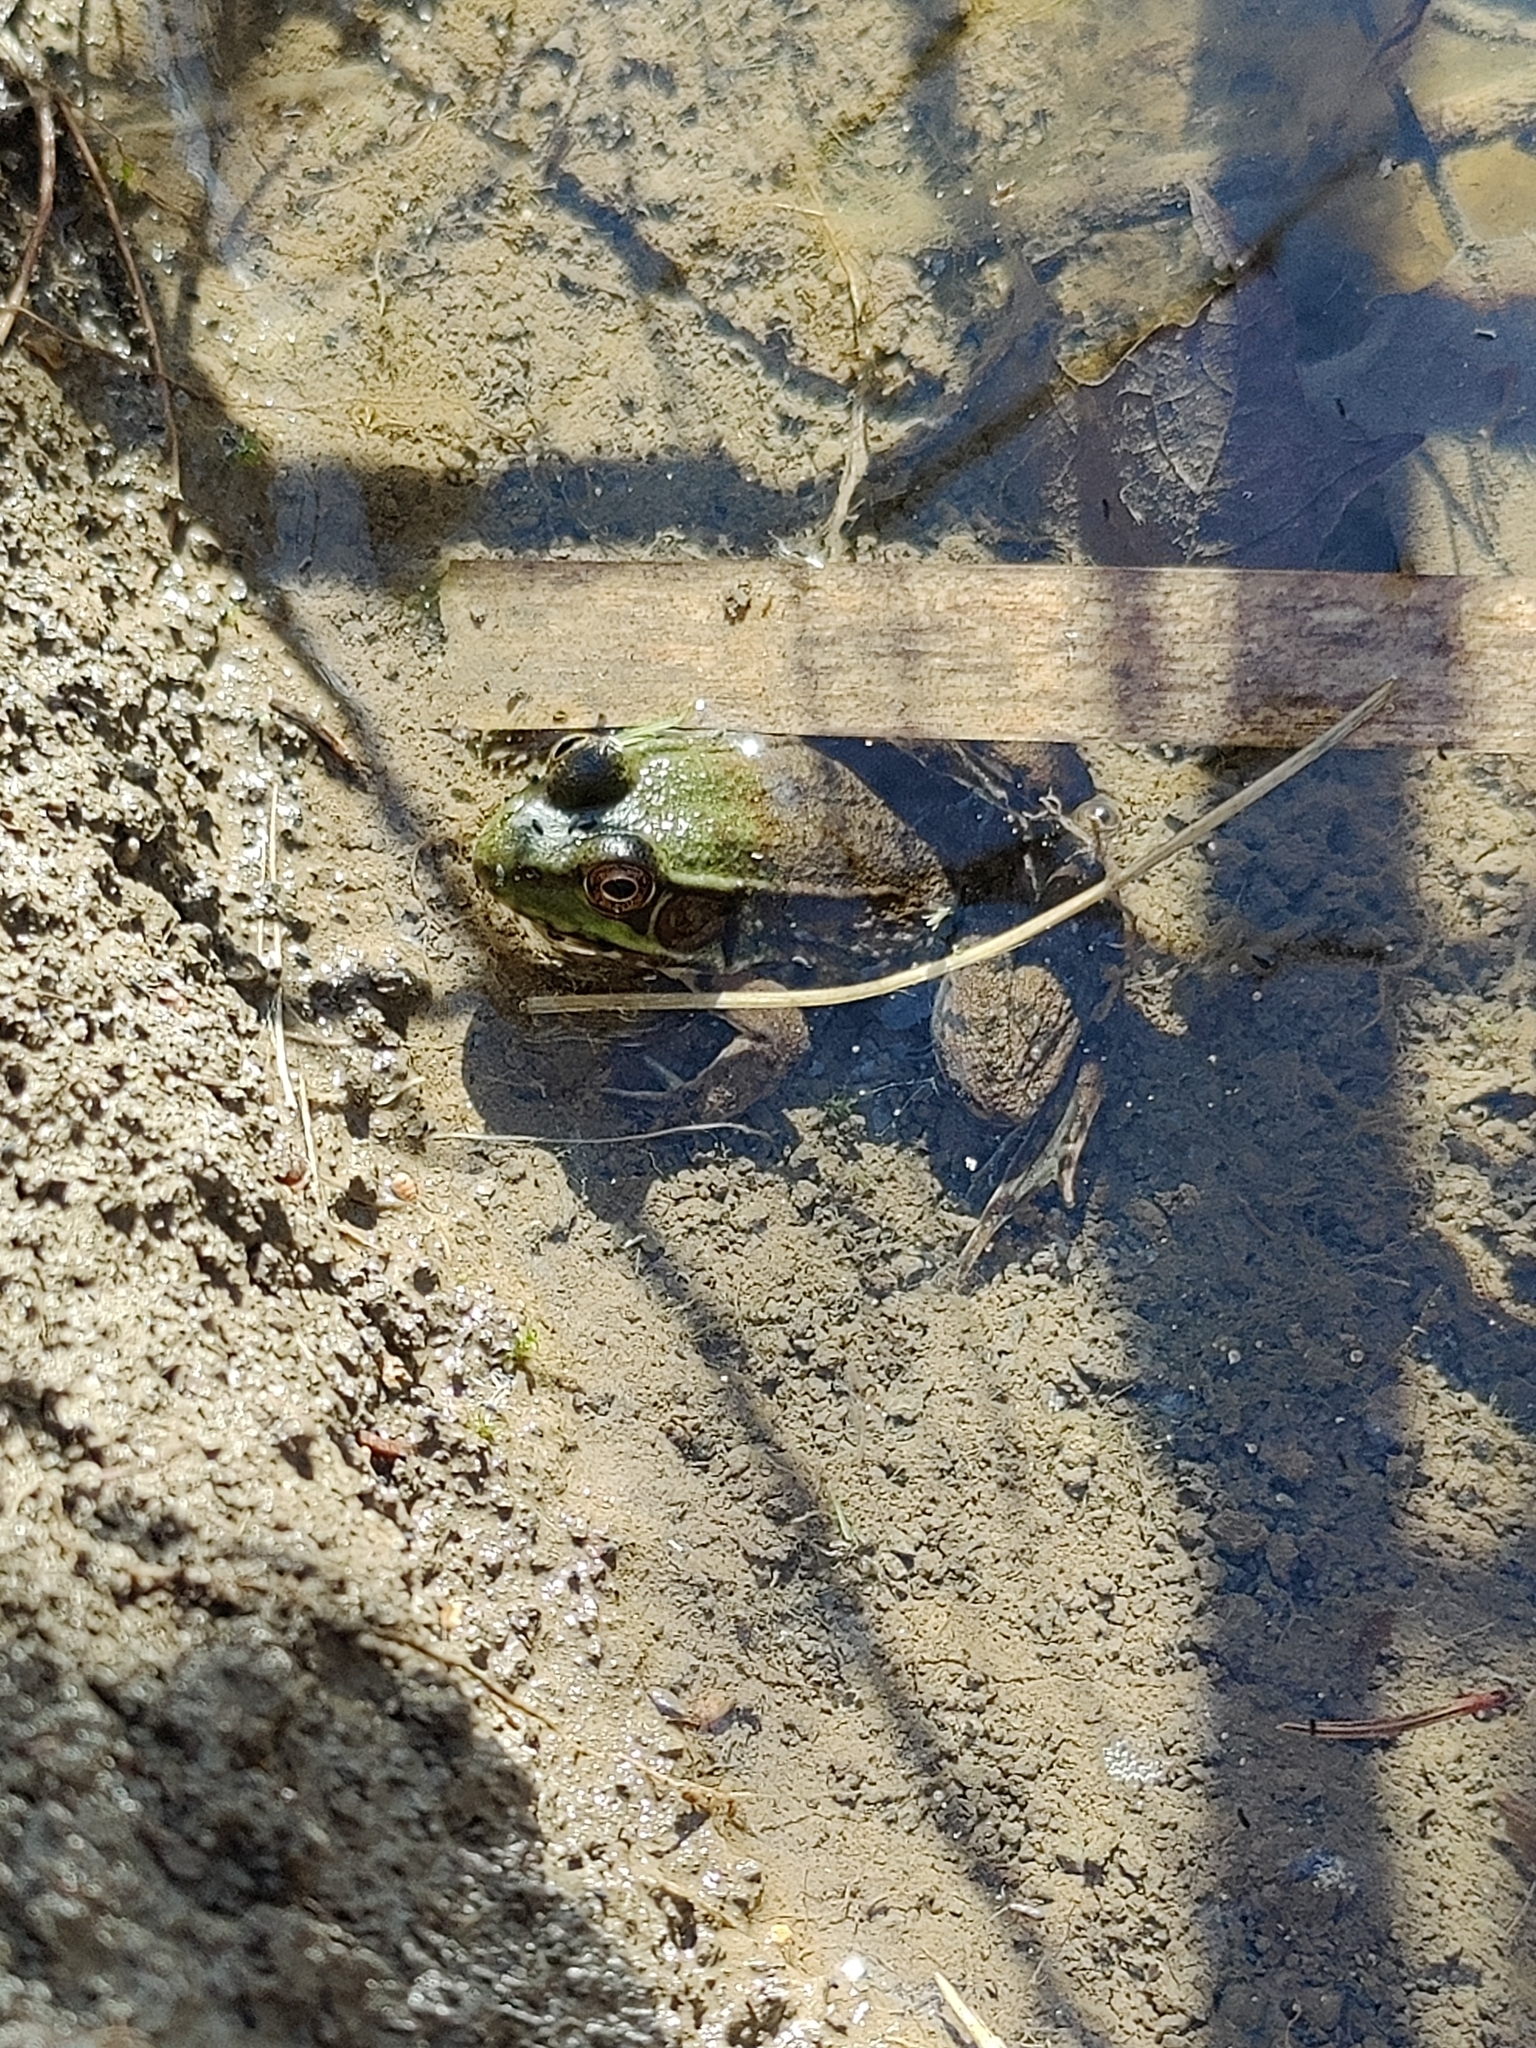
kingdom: Animalia
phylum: Chordata
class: Amphibia
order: Anura
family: Ranidae
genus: Lithobates
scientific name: Lithobates clamitans
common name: Green frog
